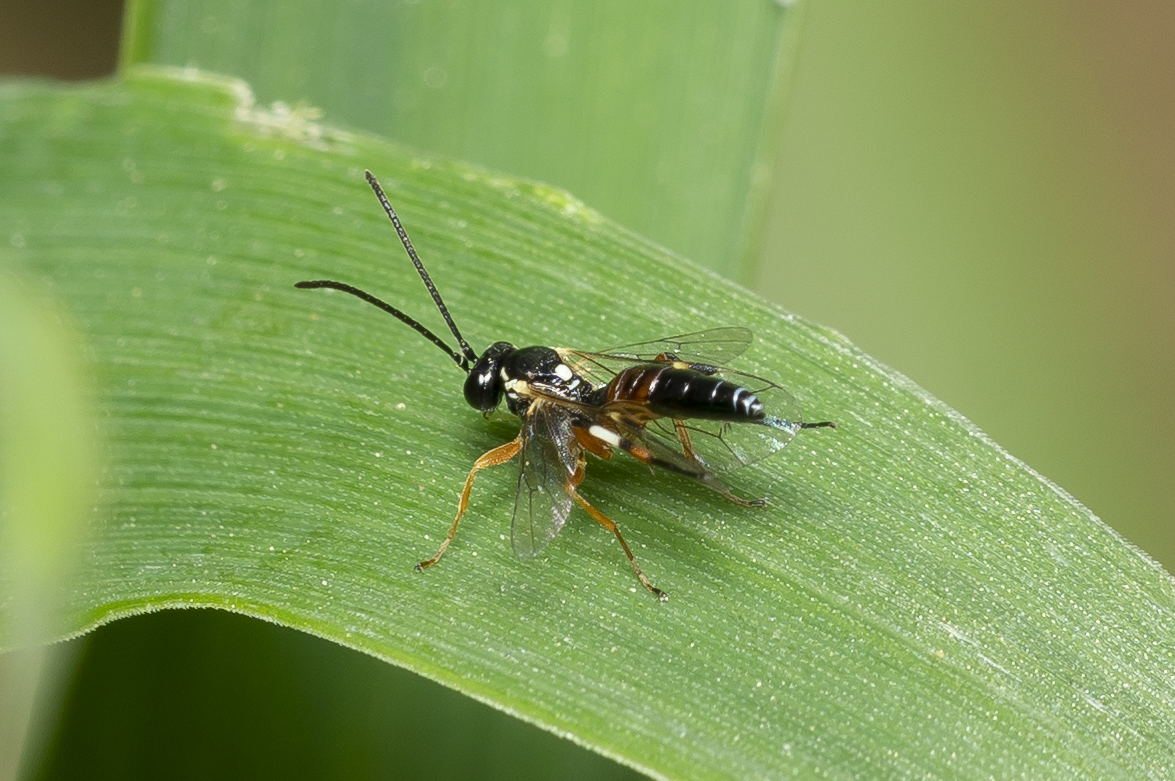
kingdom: Animalia
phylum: Arthropoda
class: Insecta
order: Hymenoptera
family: Ichneumonidae
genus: Diplazon
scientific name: Diplazon laetatorius
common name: Parasitoid wasp
